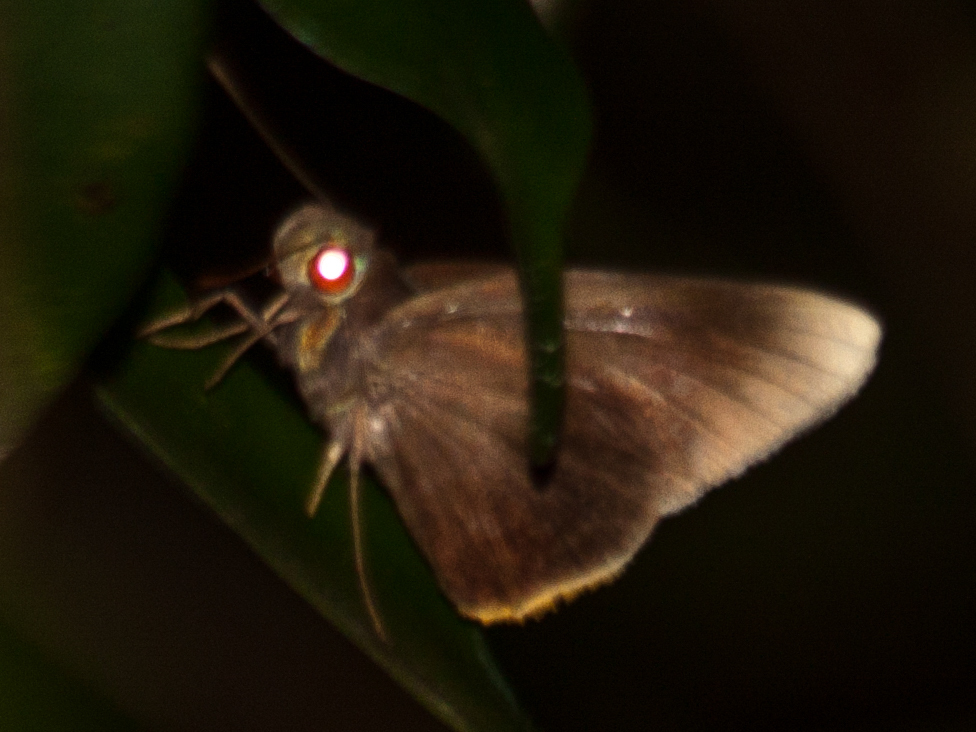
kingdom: Animalia
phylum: Arthropoda
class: Insecta
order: Lepidoptera
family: Hesperiidae
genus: Matapa
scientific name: Matapa cresta
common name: Fringed redeye
